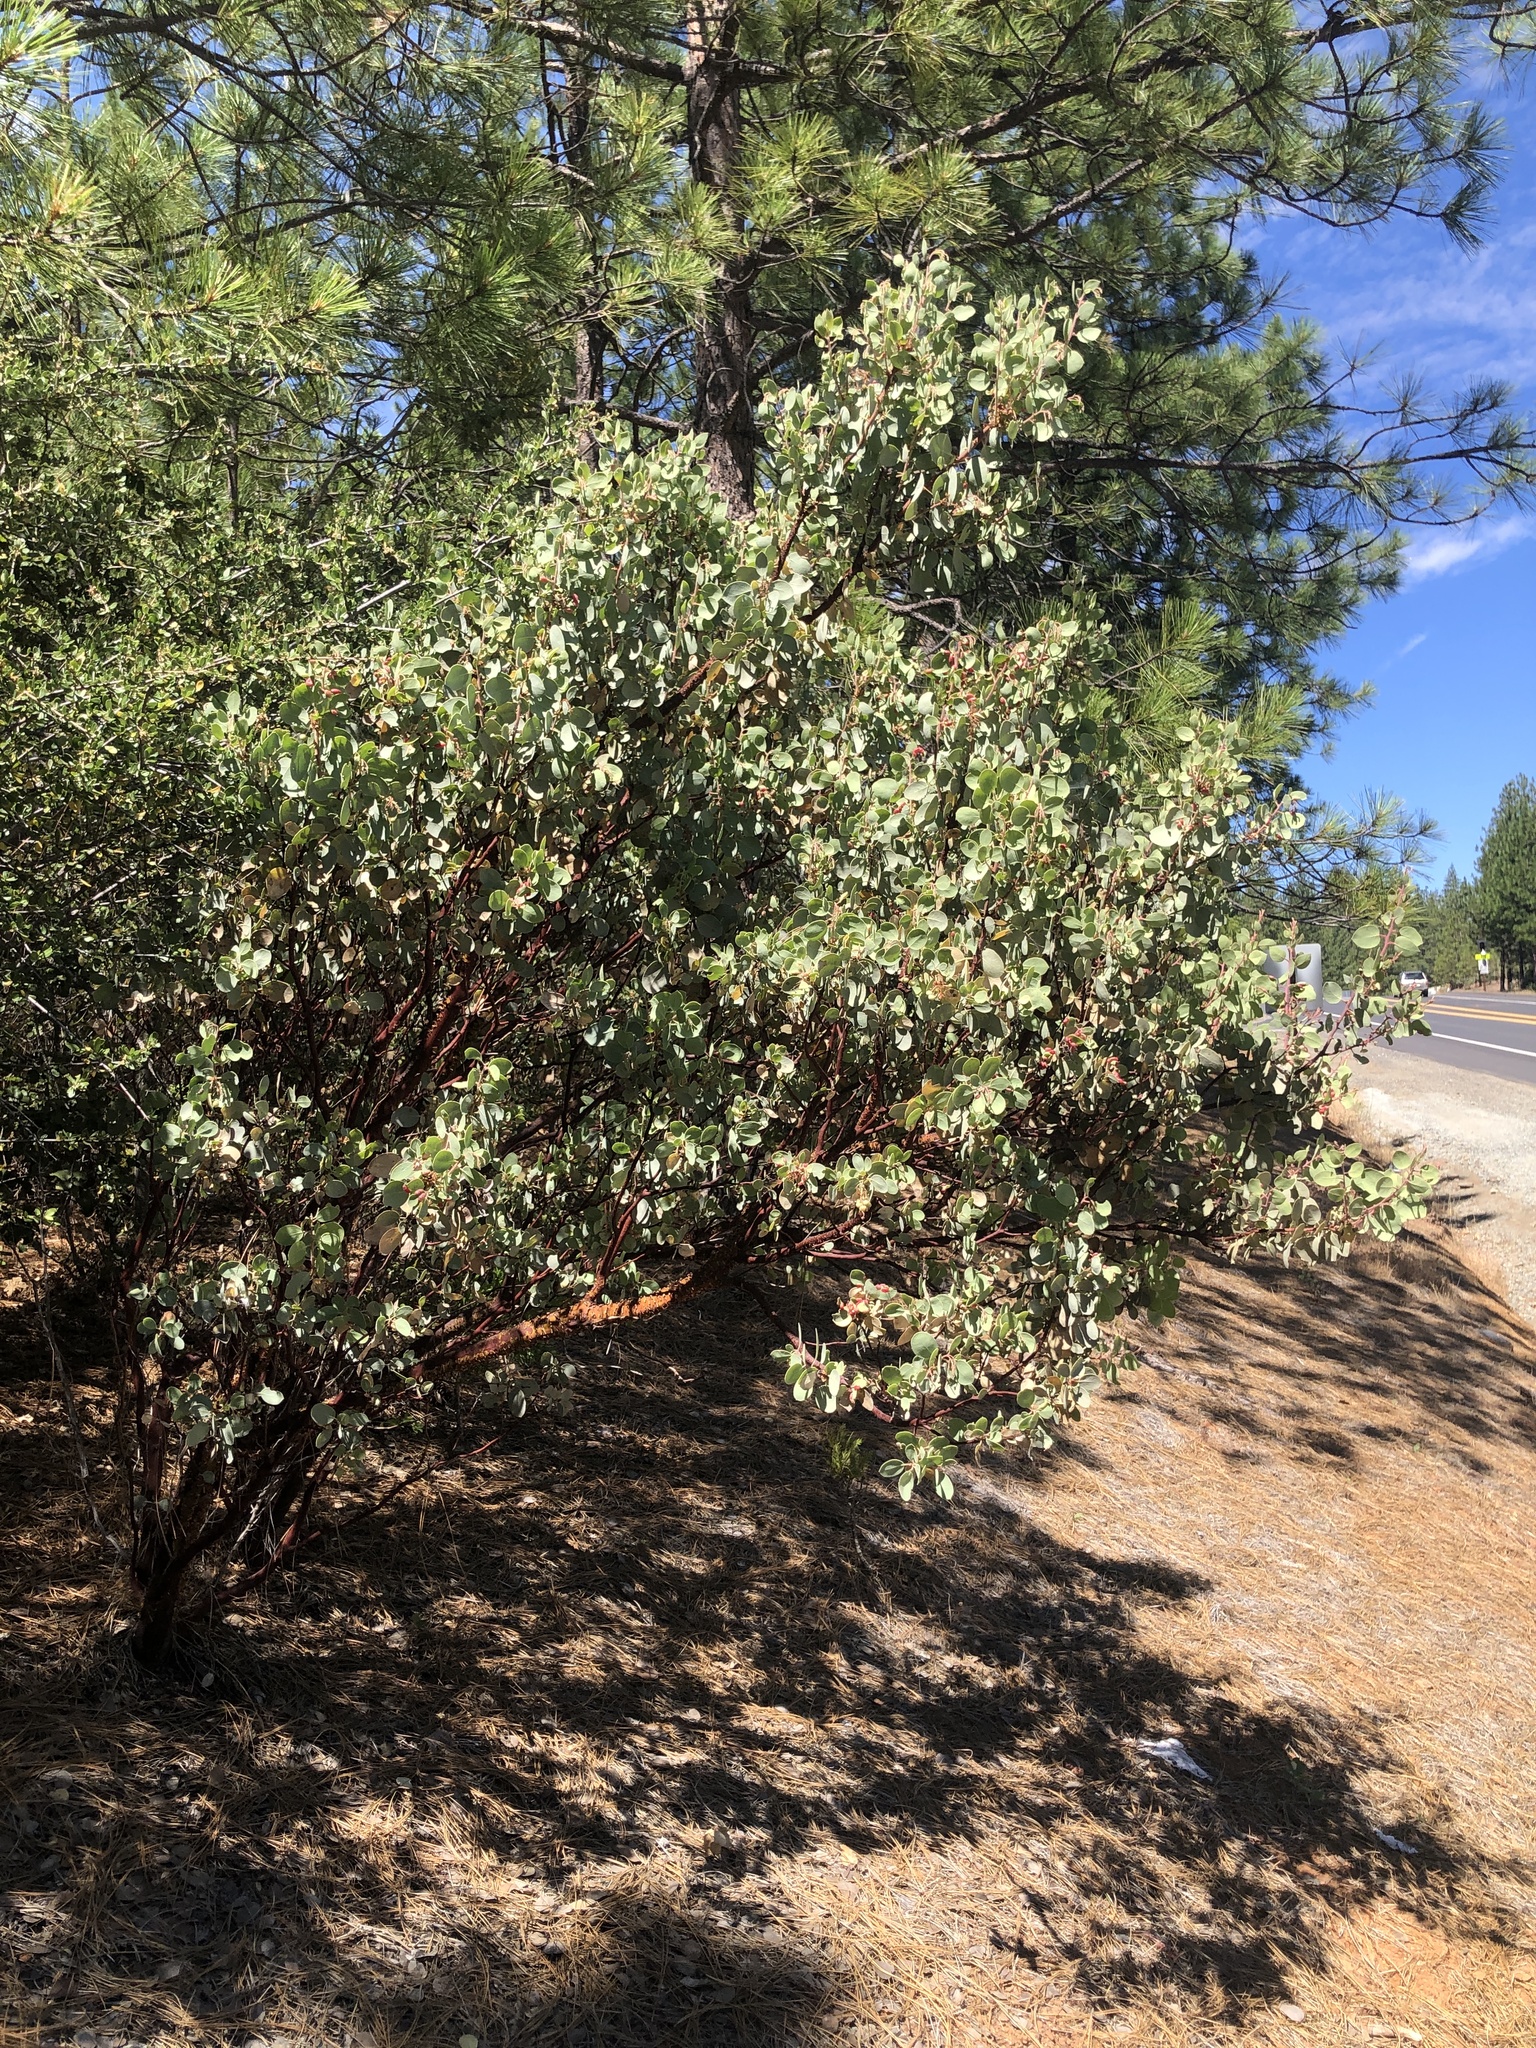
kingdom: Plantae
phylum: Tracheophyta
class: Magnoliopsida
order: Ericales
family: Ericaceae
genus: Arctostaphylos
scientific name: Arctostaphylos viscida
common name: White-leaf manzanita
